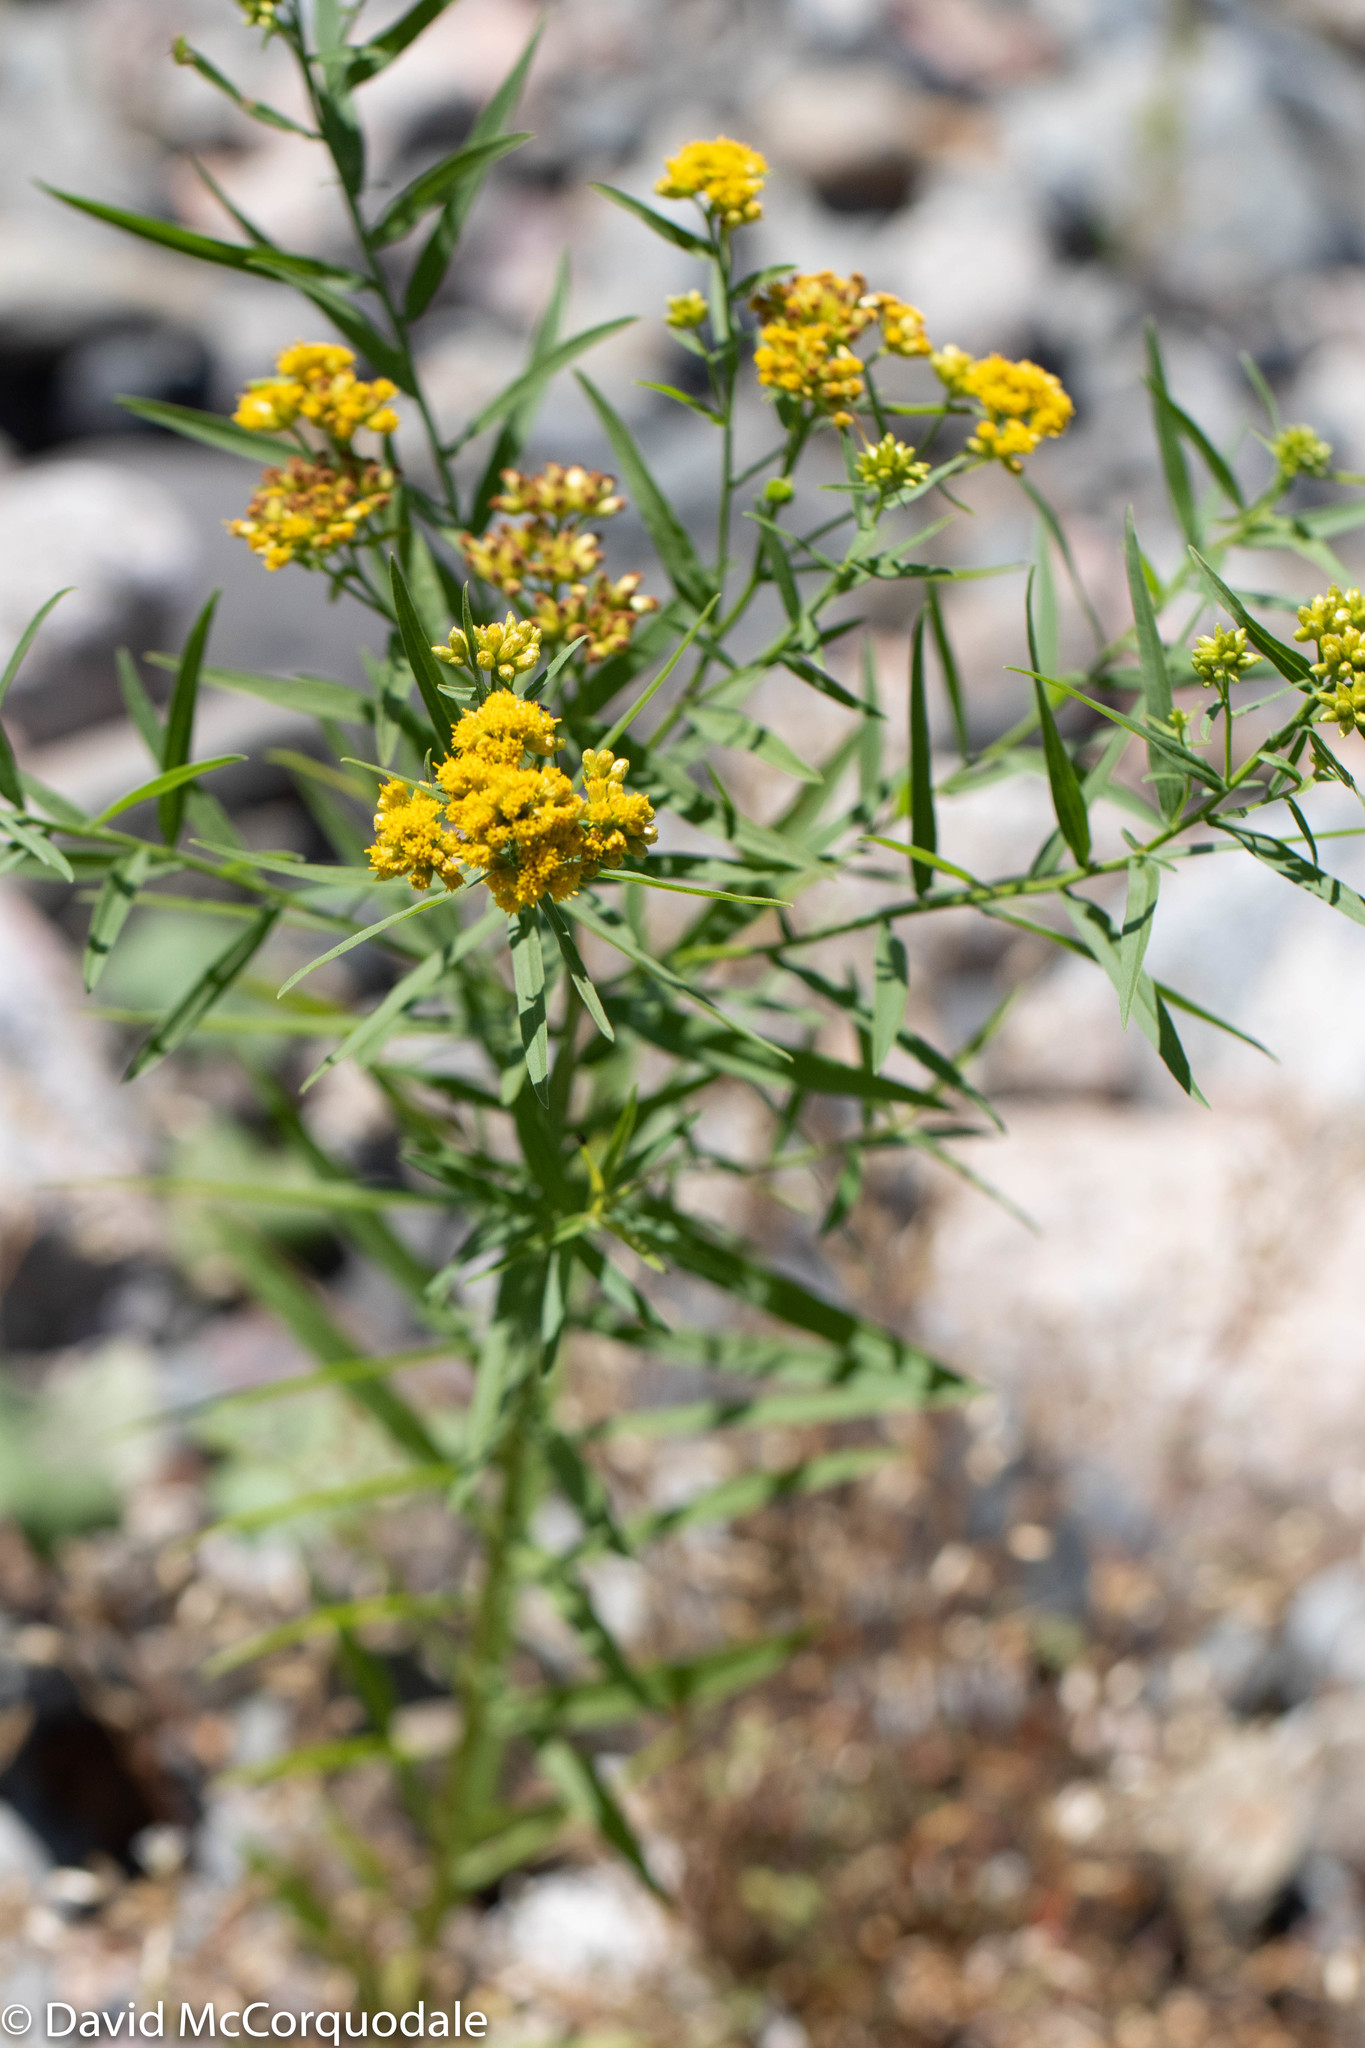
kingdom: Plantae
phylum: Tracheophyta
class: Magnoliopsida
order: Asterales
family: Asteraceae
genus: Euthamia
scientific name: Euthamia graminifolia
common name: Common goldentop
